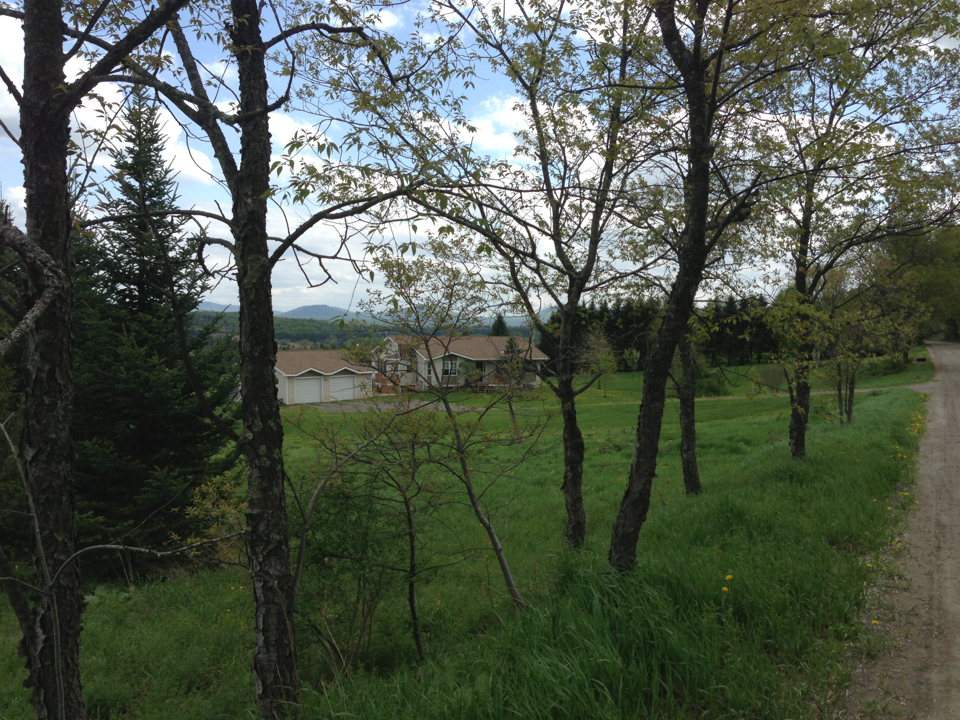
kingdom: Plantae
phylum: Tracheophyta
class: Magnoliopsida
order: Rosales
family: Rosaceae
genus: Prunus
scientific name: Prunus serotina
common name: Black cherry
